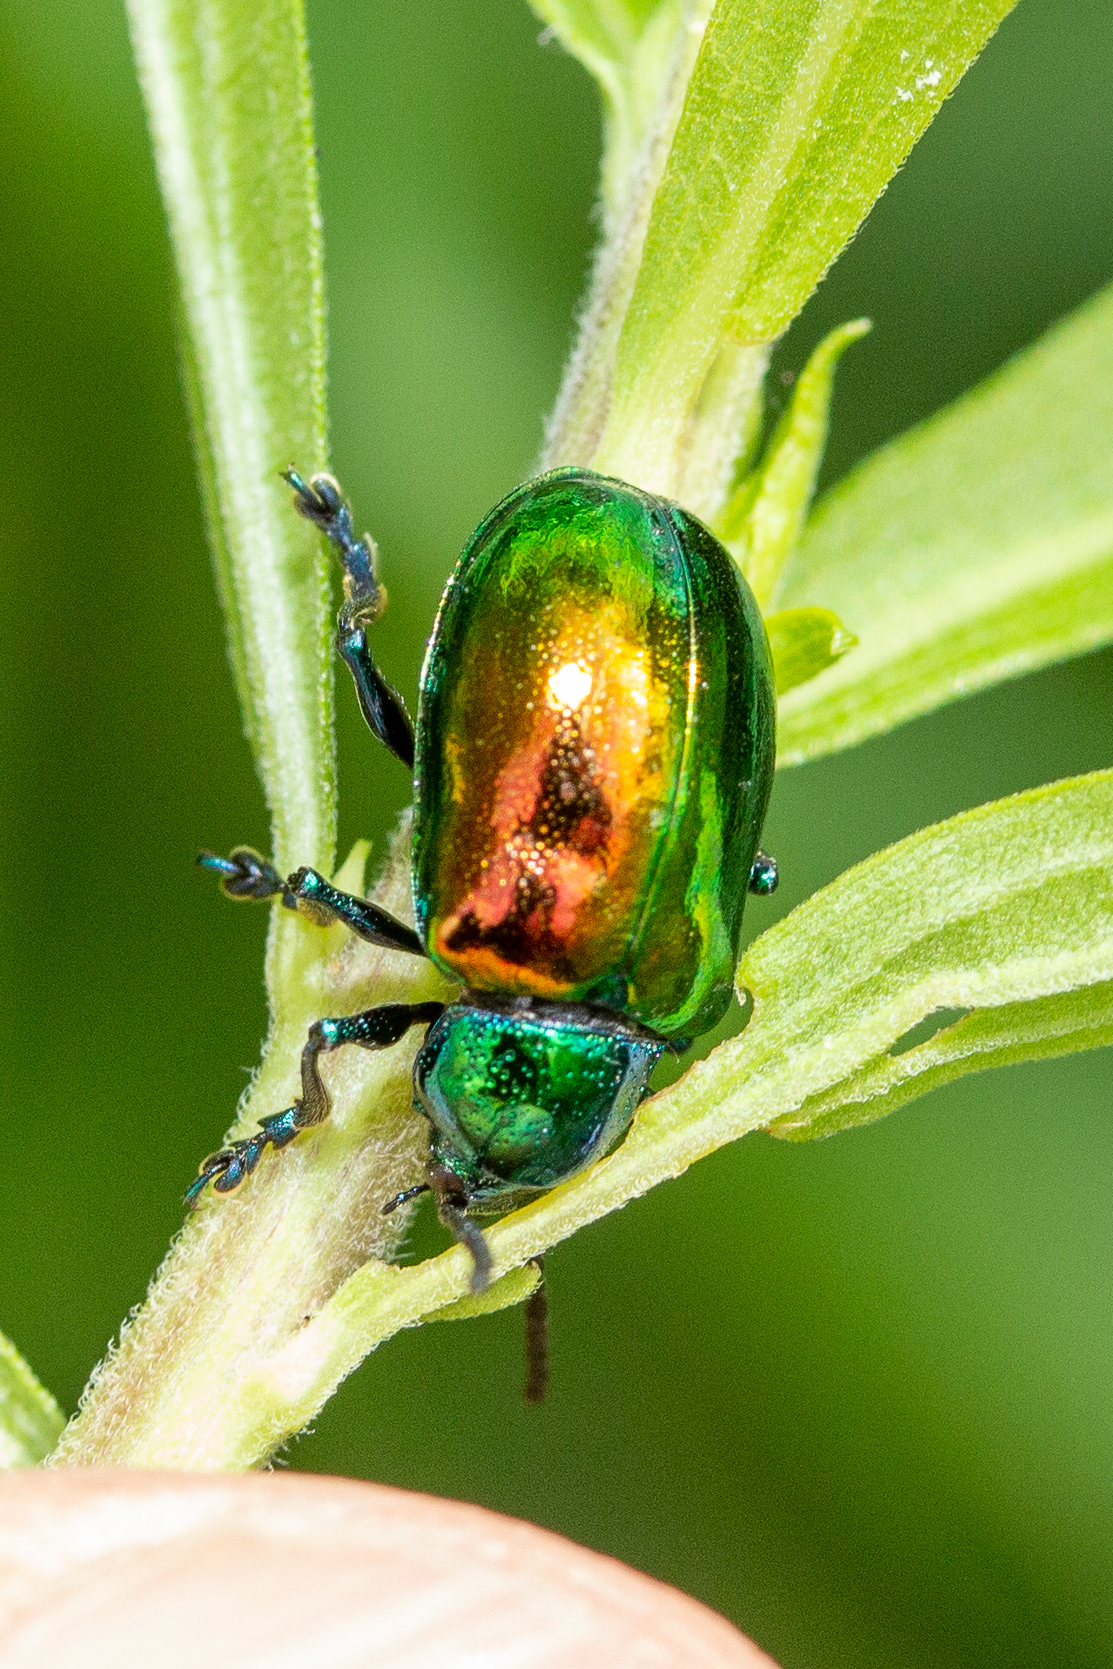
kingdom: Animalia
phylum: Arthropoda
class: Insecta
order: Coleoptera
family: Chrysomelidae
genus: Chrysochus
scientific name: Chrysochus auratus
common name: Dogbane leaf beetle
